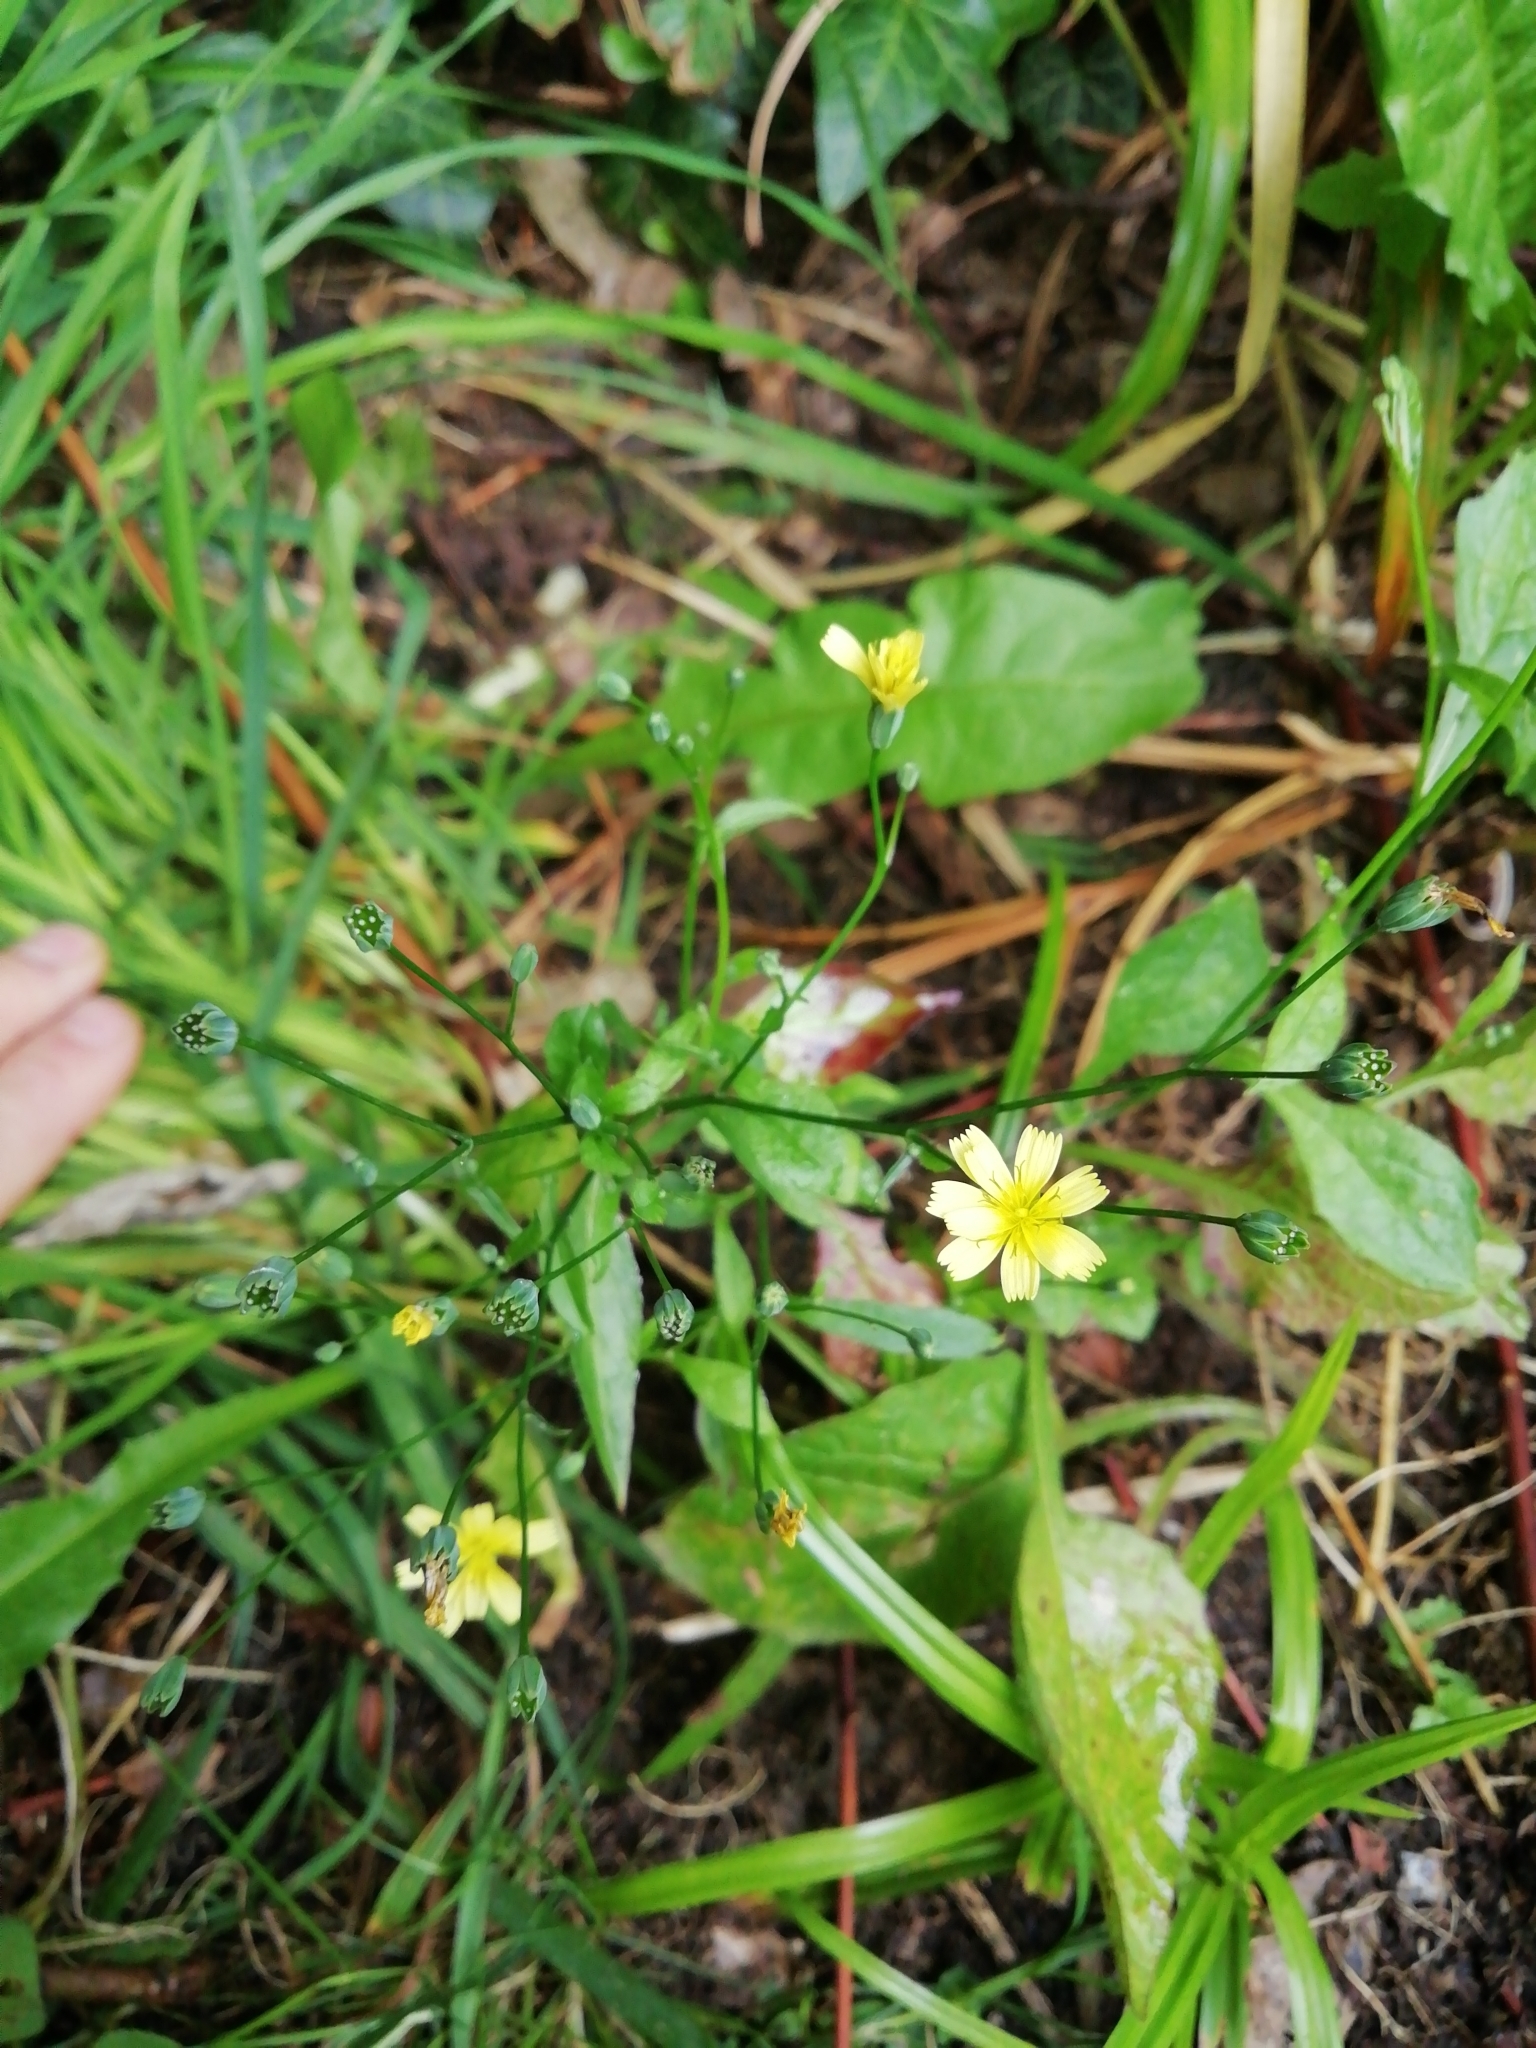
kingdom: Plantae
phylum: Tracheophyta
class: Magnoliopsida
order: Asterales
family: Asteraceae
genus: Lapsana
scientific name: Lapsana communis
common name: Nipplewort
